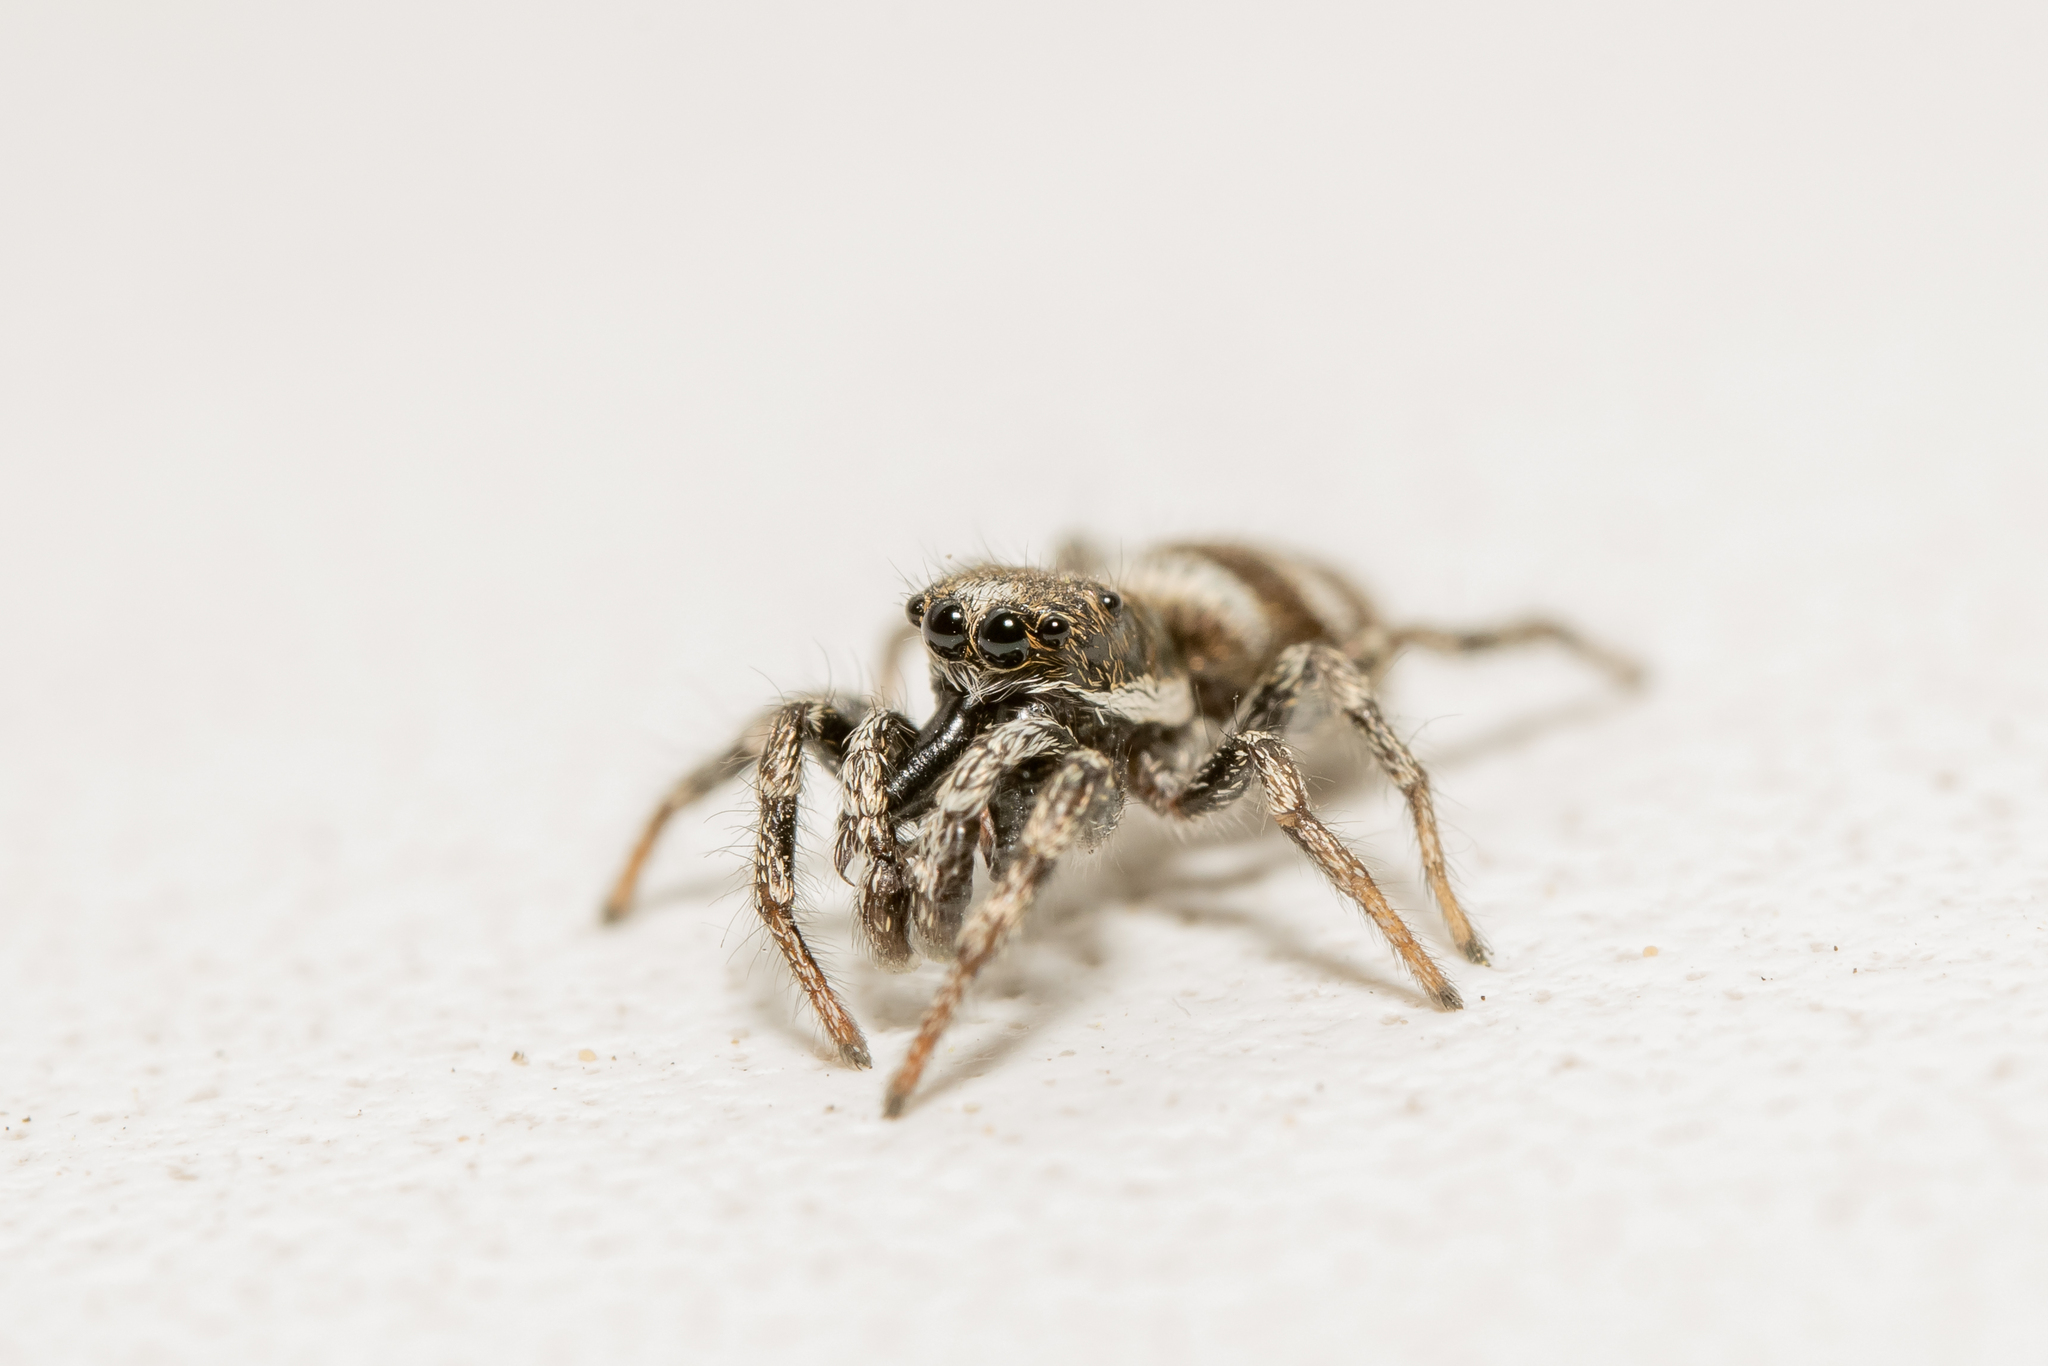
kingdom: Animalia
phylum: Arthropoda
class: Arachnida
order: Araneae
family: Salticidae
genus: Salticus
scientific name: Salticus scenicus
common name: Zebra jumper
